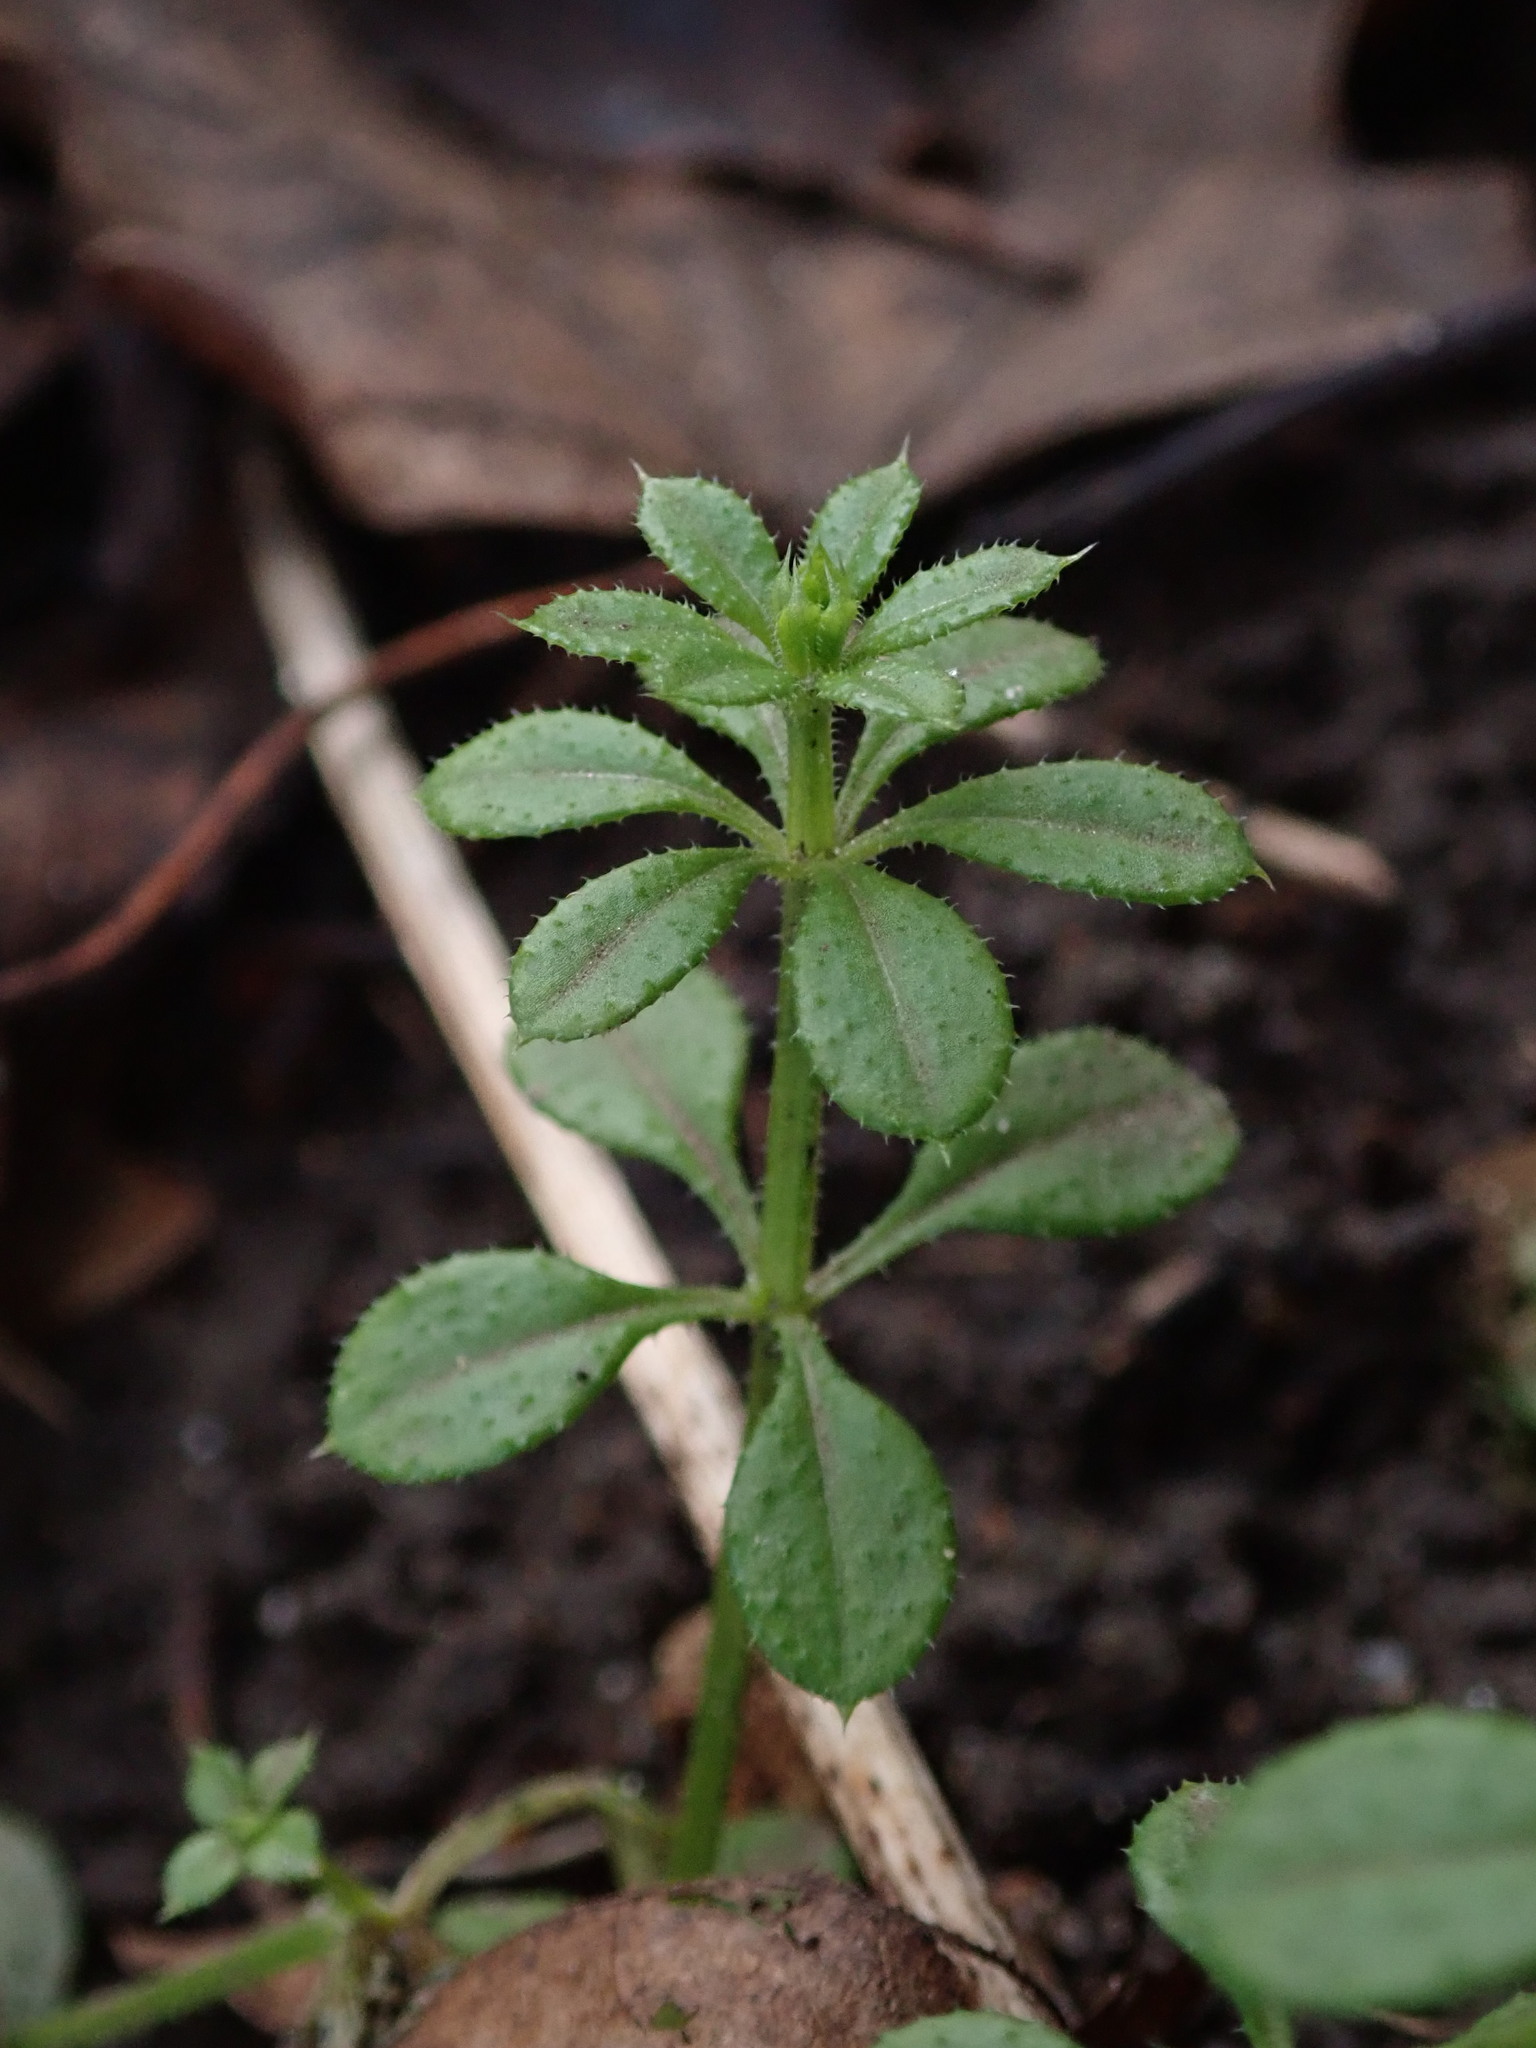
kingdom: Plantae
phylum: Tracheophyta
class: Magnoliopsida
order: Gentianales
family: Rubiaceae
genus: Galium
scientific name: Galium aparine
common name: Cleavers
